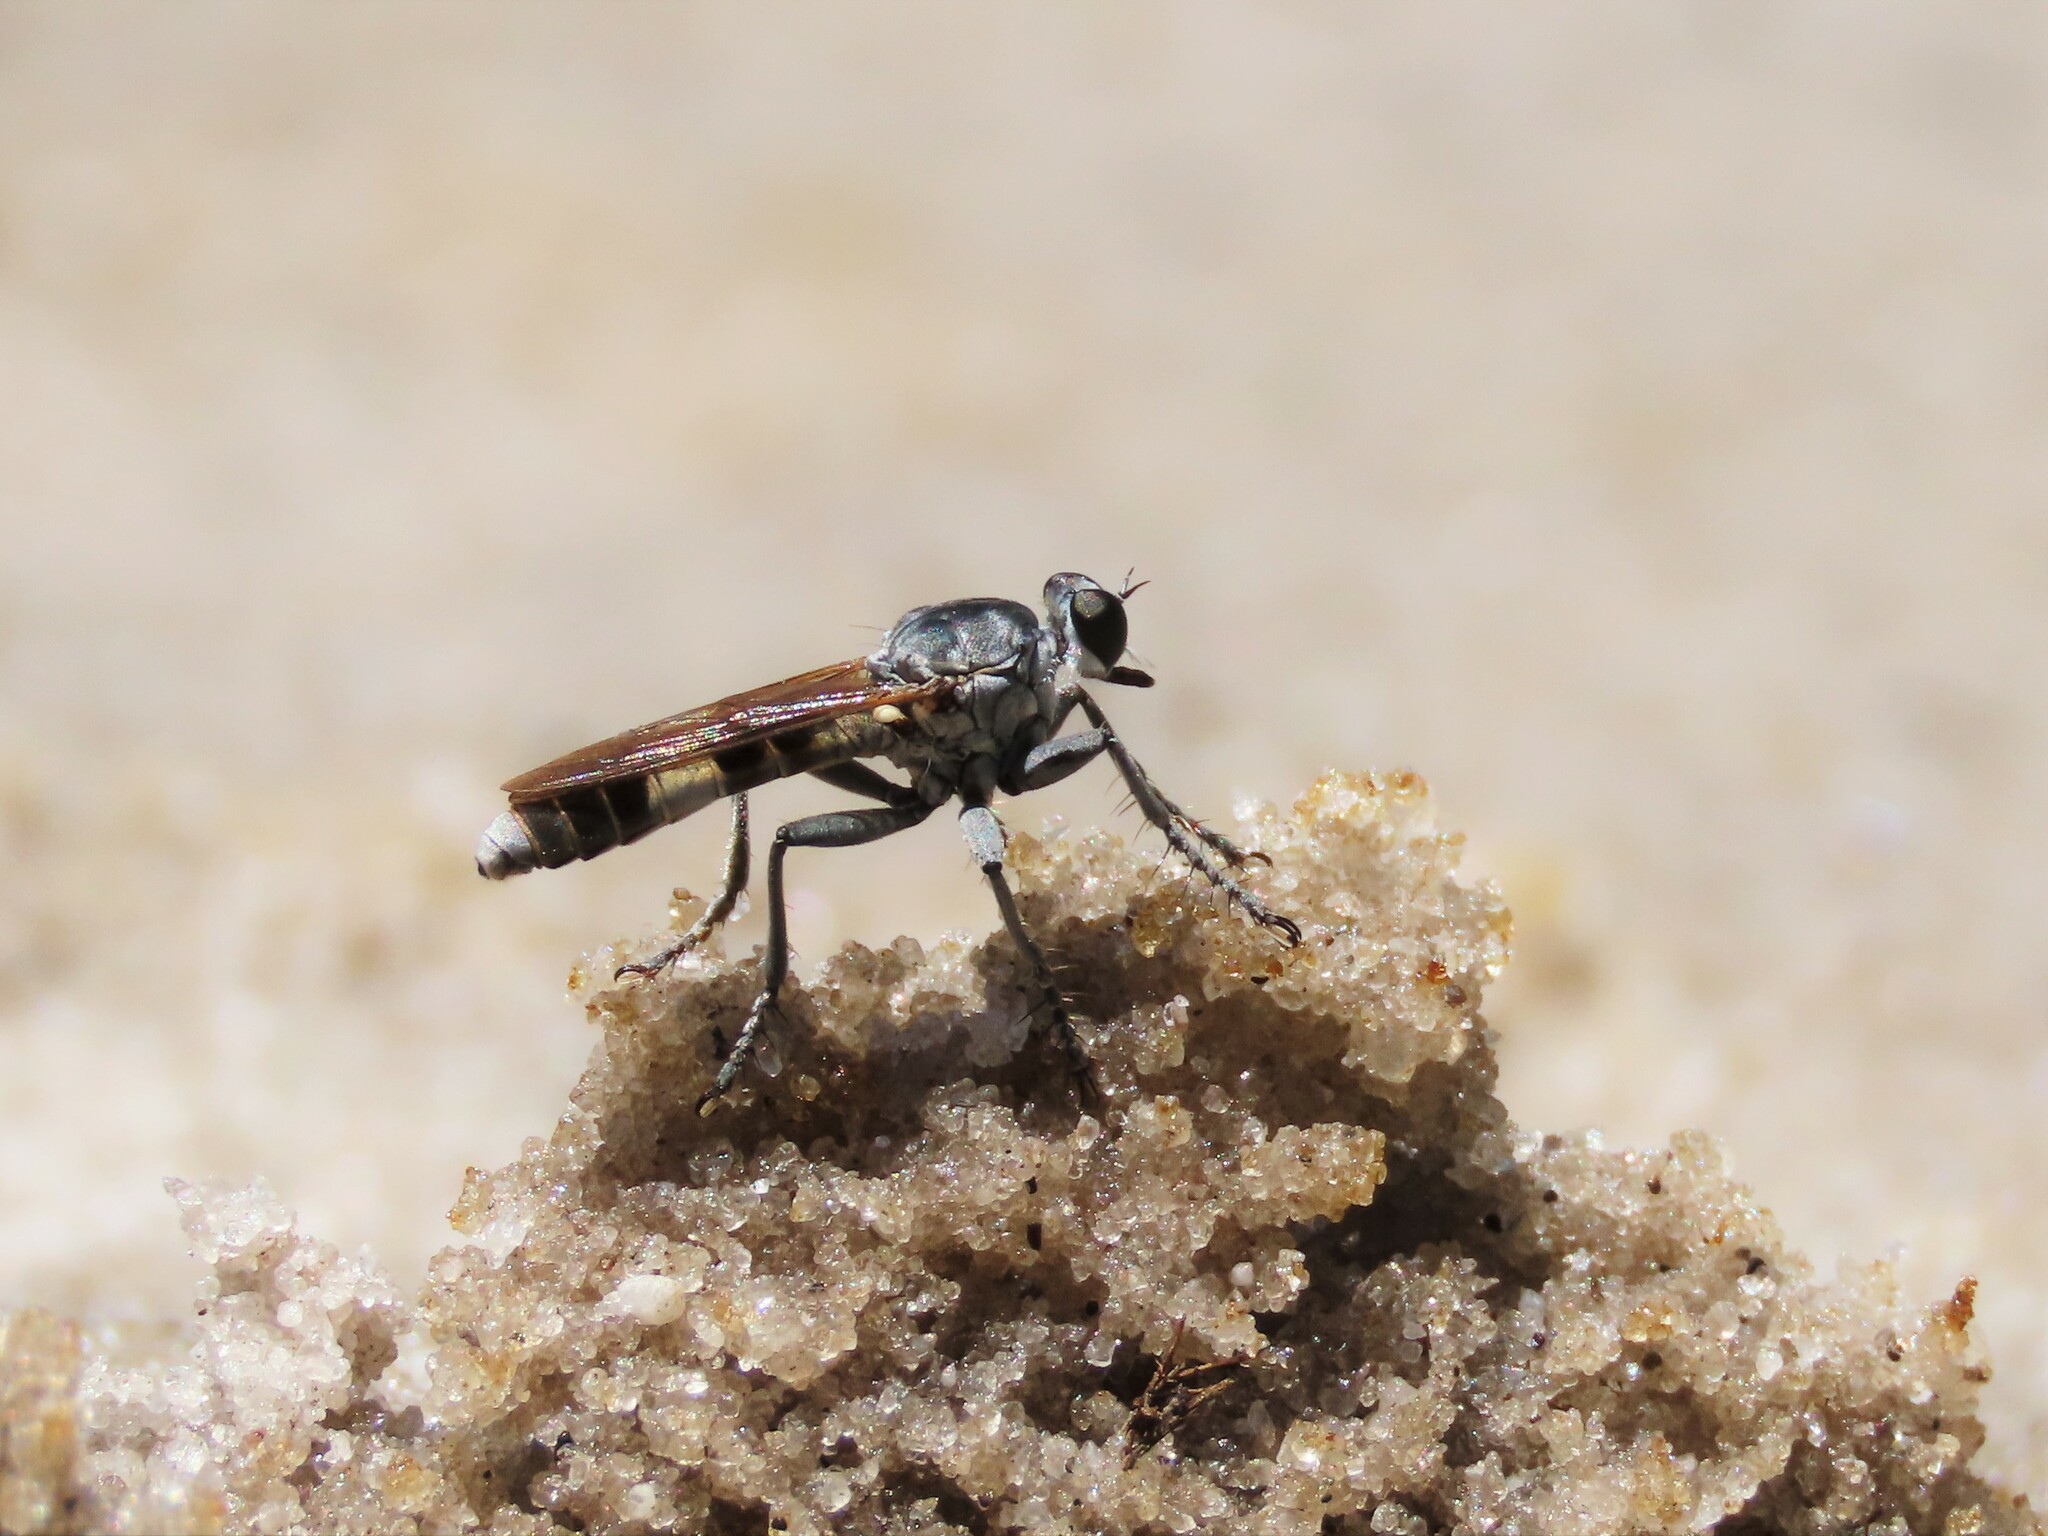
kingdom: Animalia
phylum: Arthropoda
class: Insecta
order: Diptera
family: Asilidae
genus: Stichopogon
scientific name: Stichopogon trifasciatus
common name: Three-banded robber fly
